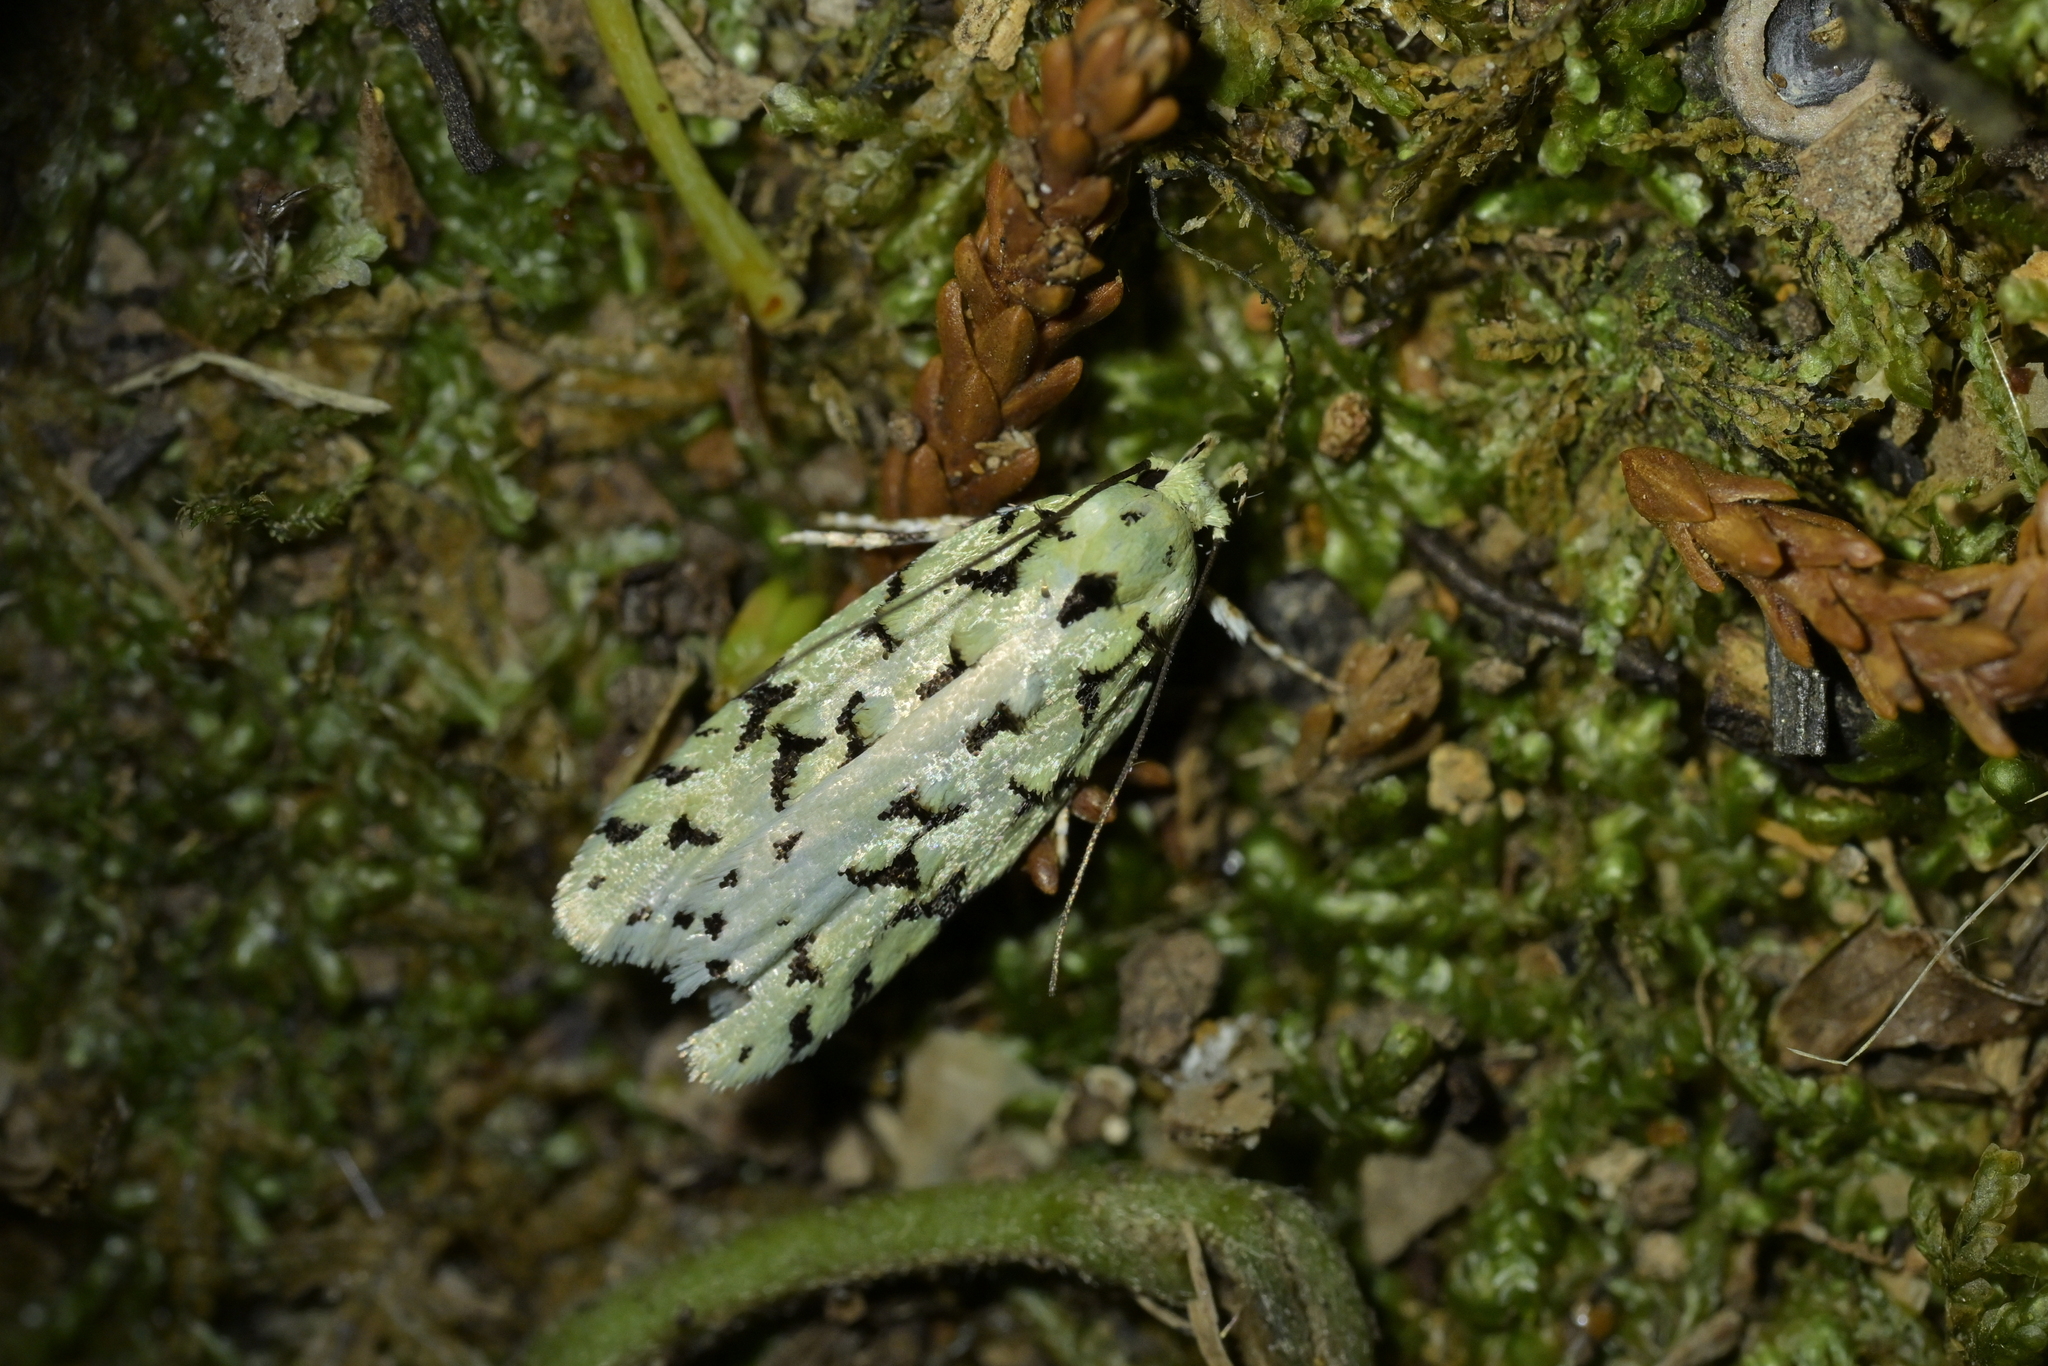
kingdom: Animalia
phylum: Arthropoda
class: Insecta
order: Lepidoptera
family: Oecophoridae
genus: Izatha
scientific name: Izatha huttoni
